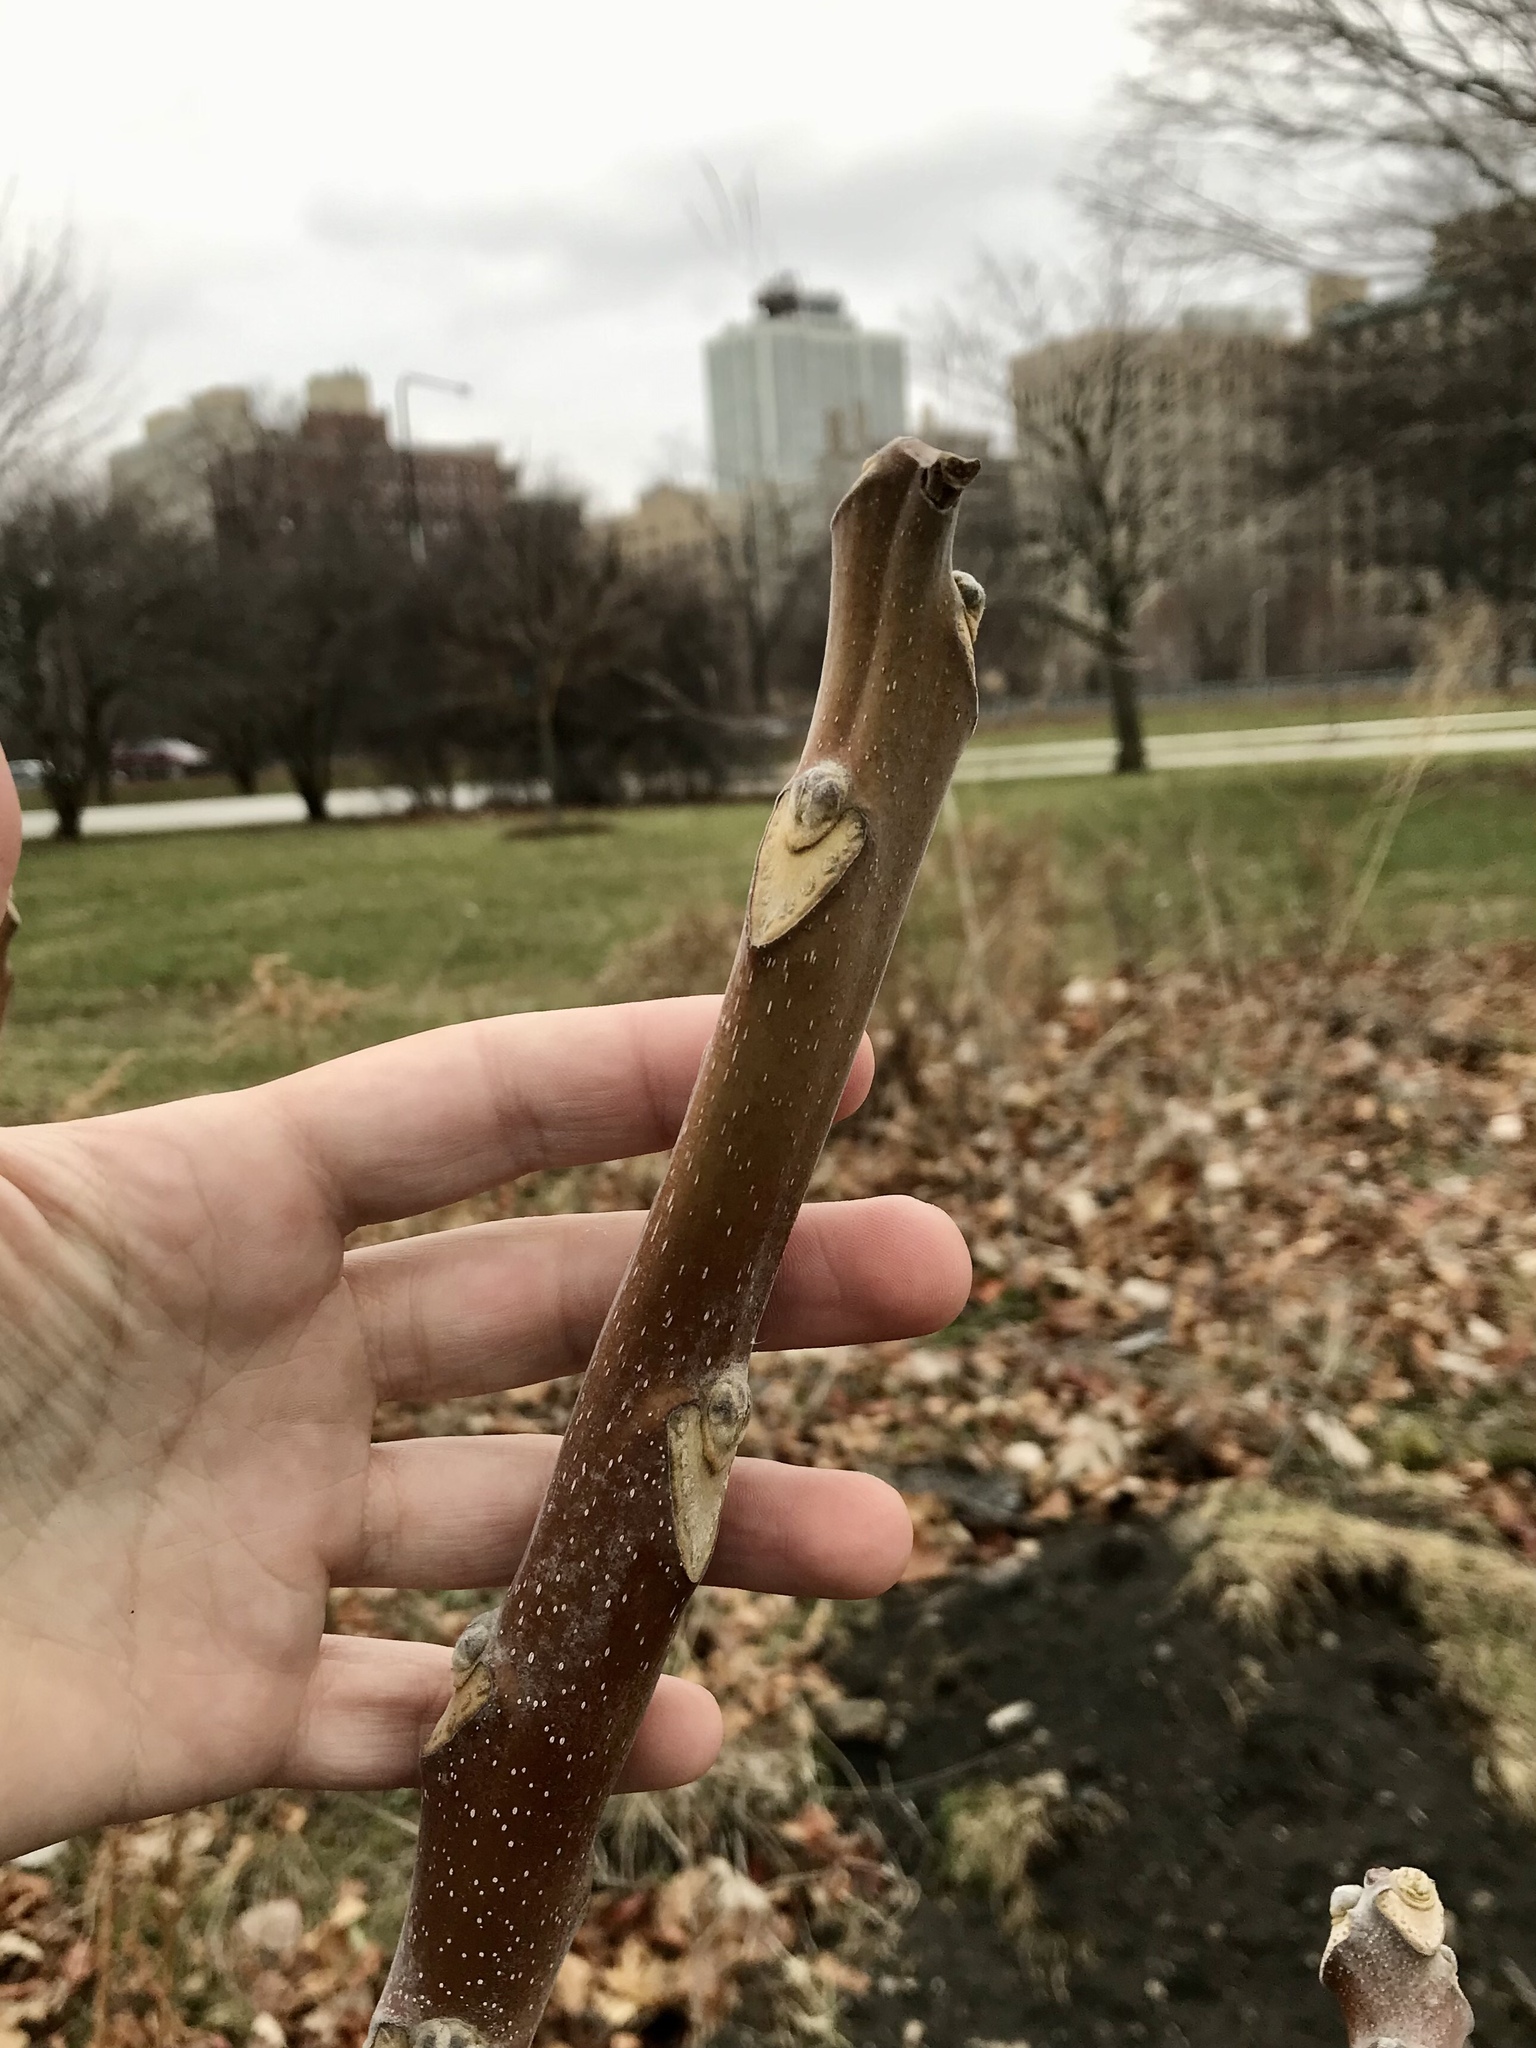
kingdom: Plantae
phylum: Tracheophyta
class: Magnoliopsida
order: Sapindales
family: Simaroubaceae
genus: Ailanthus
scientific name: Ailanthus altissima
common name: Tree-of-heaven
